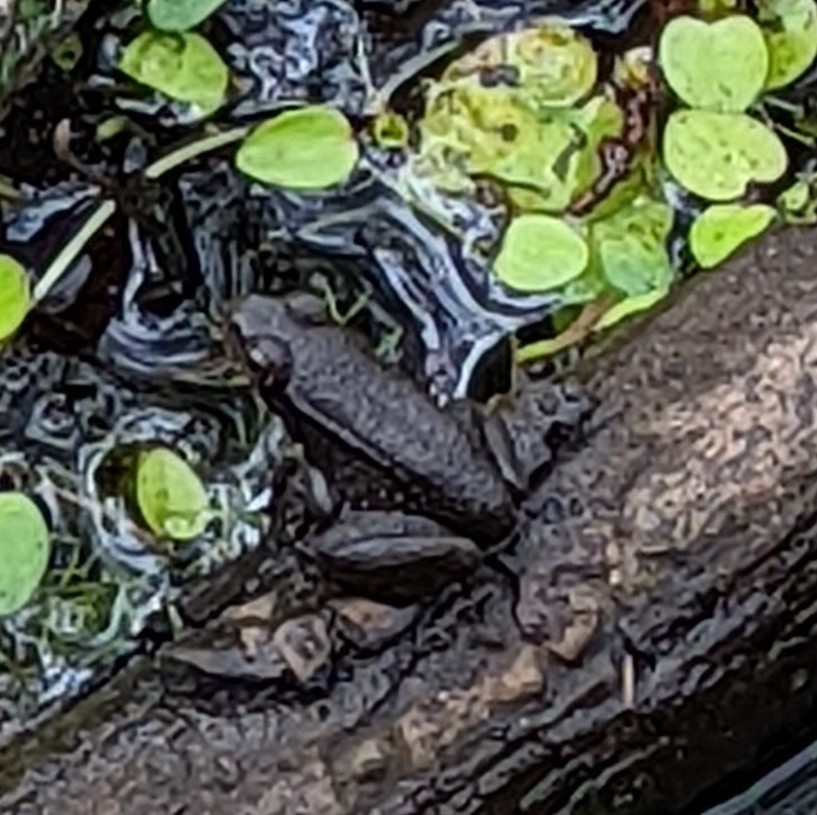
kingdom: Animalia
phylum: Chordata
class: Amphibia
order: Anura
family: Ranidae
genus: Lithobates
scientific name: Lithobates clamitans
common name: Green frog
